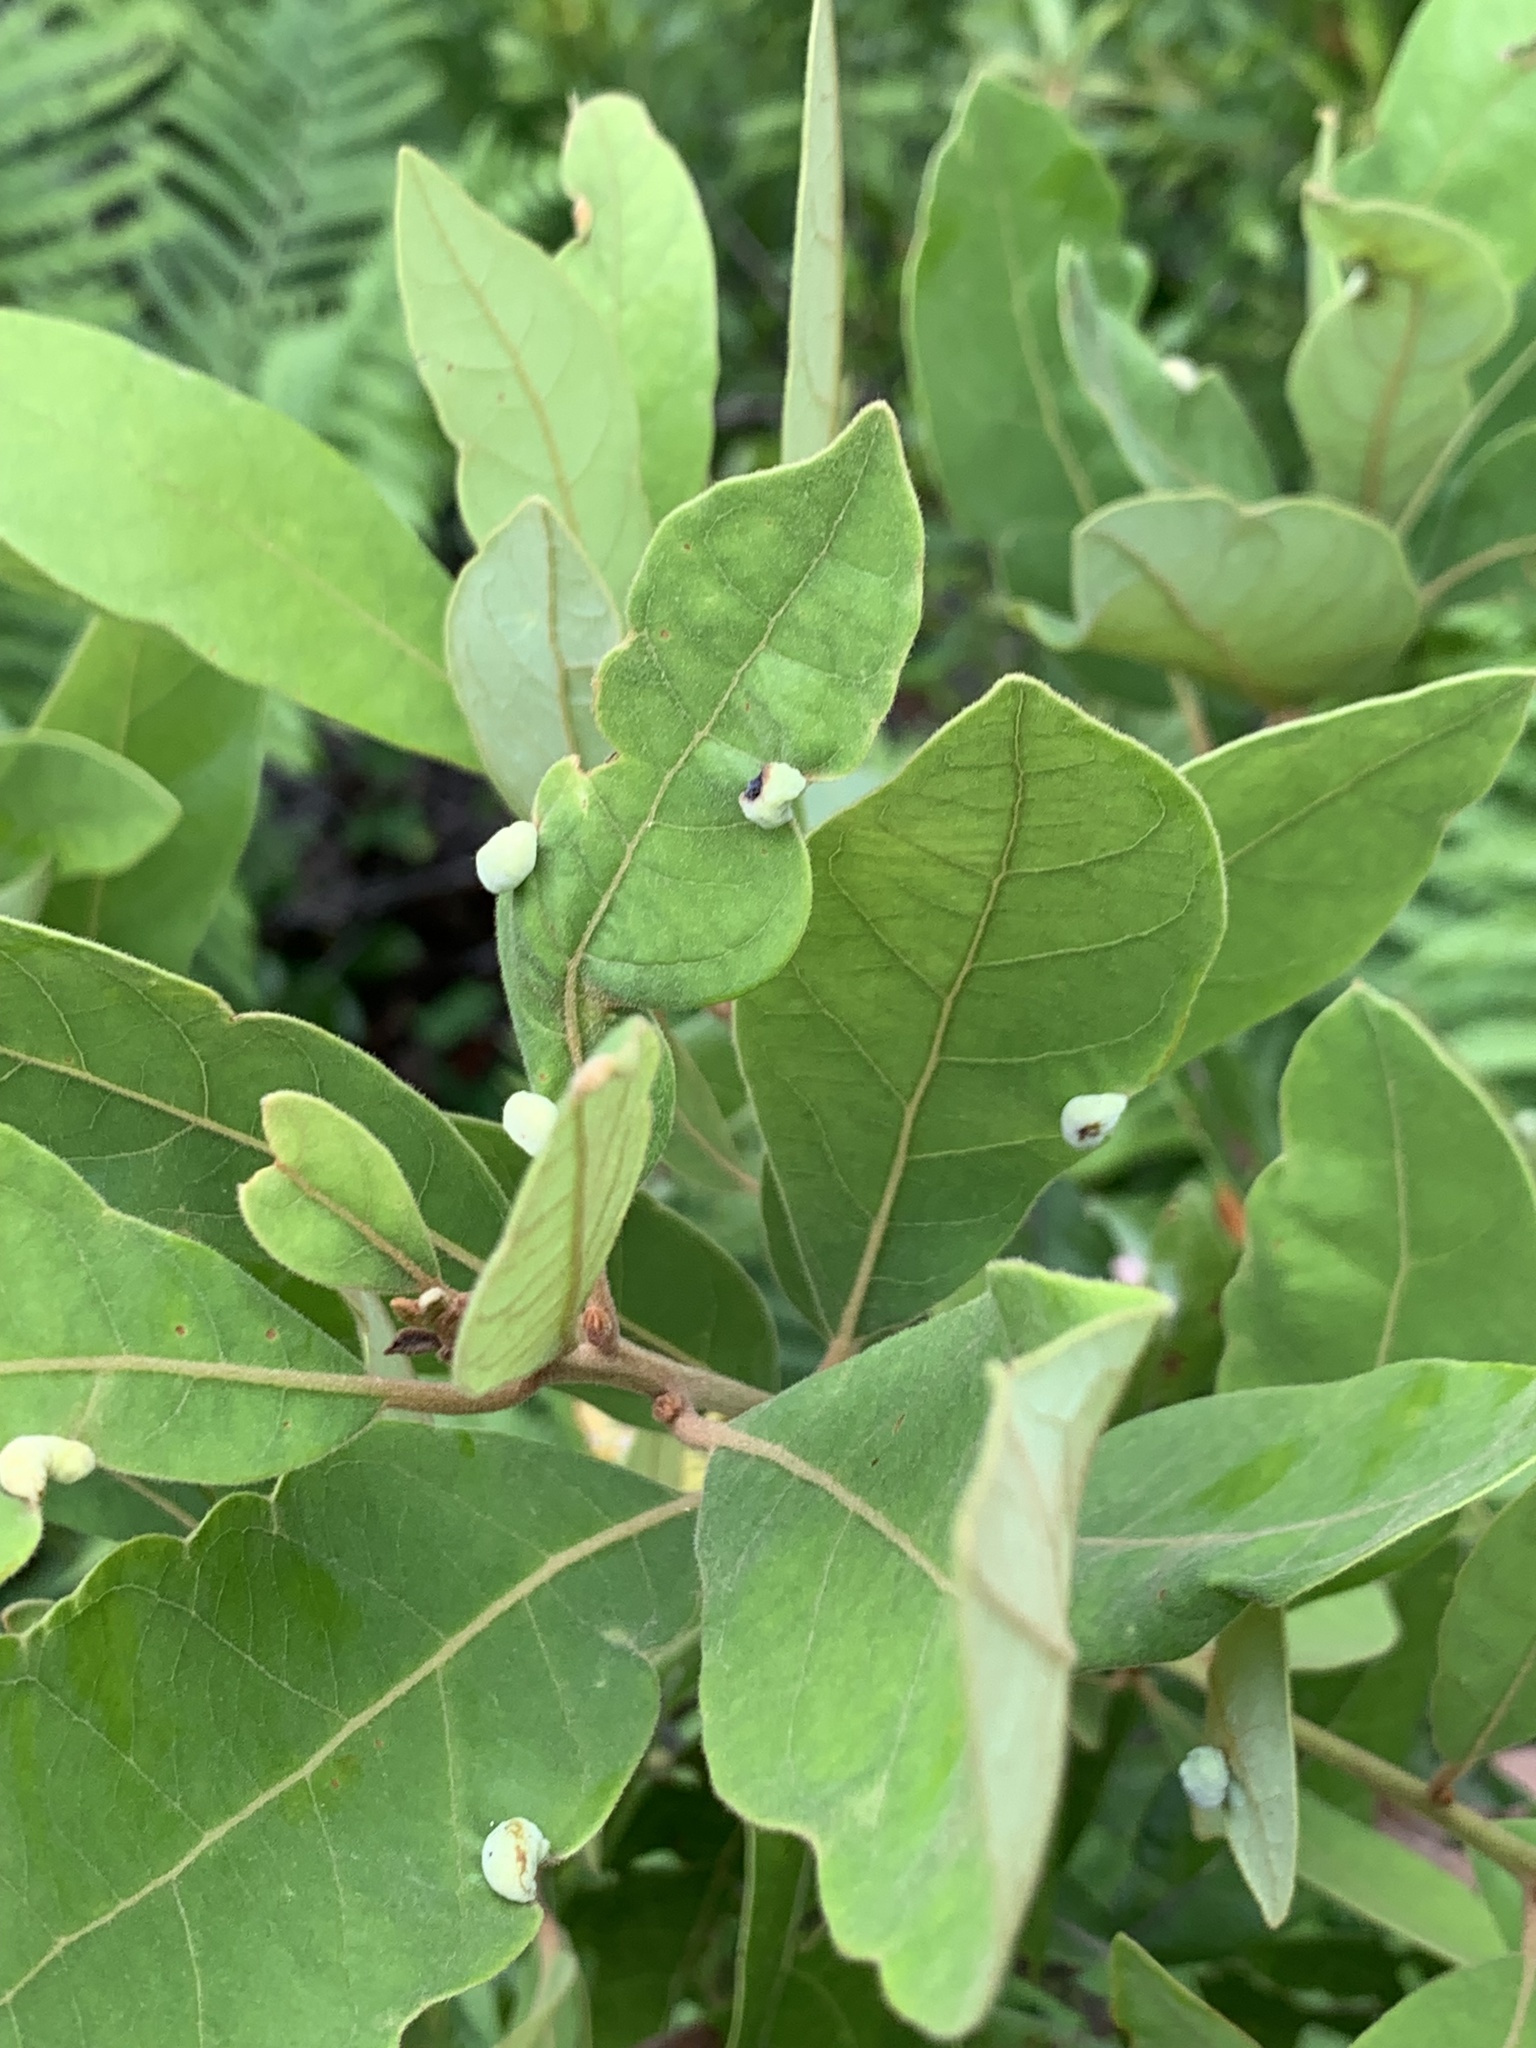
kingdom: Animalia
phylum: Arthropoda
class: Insecta
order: Hemiptera
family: Triozidae
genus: Trioza
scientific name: Trioza magnoliae
